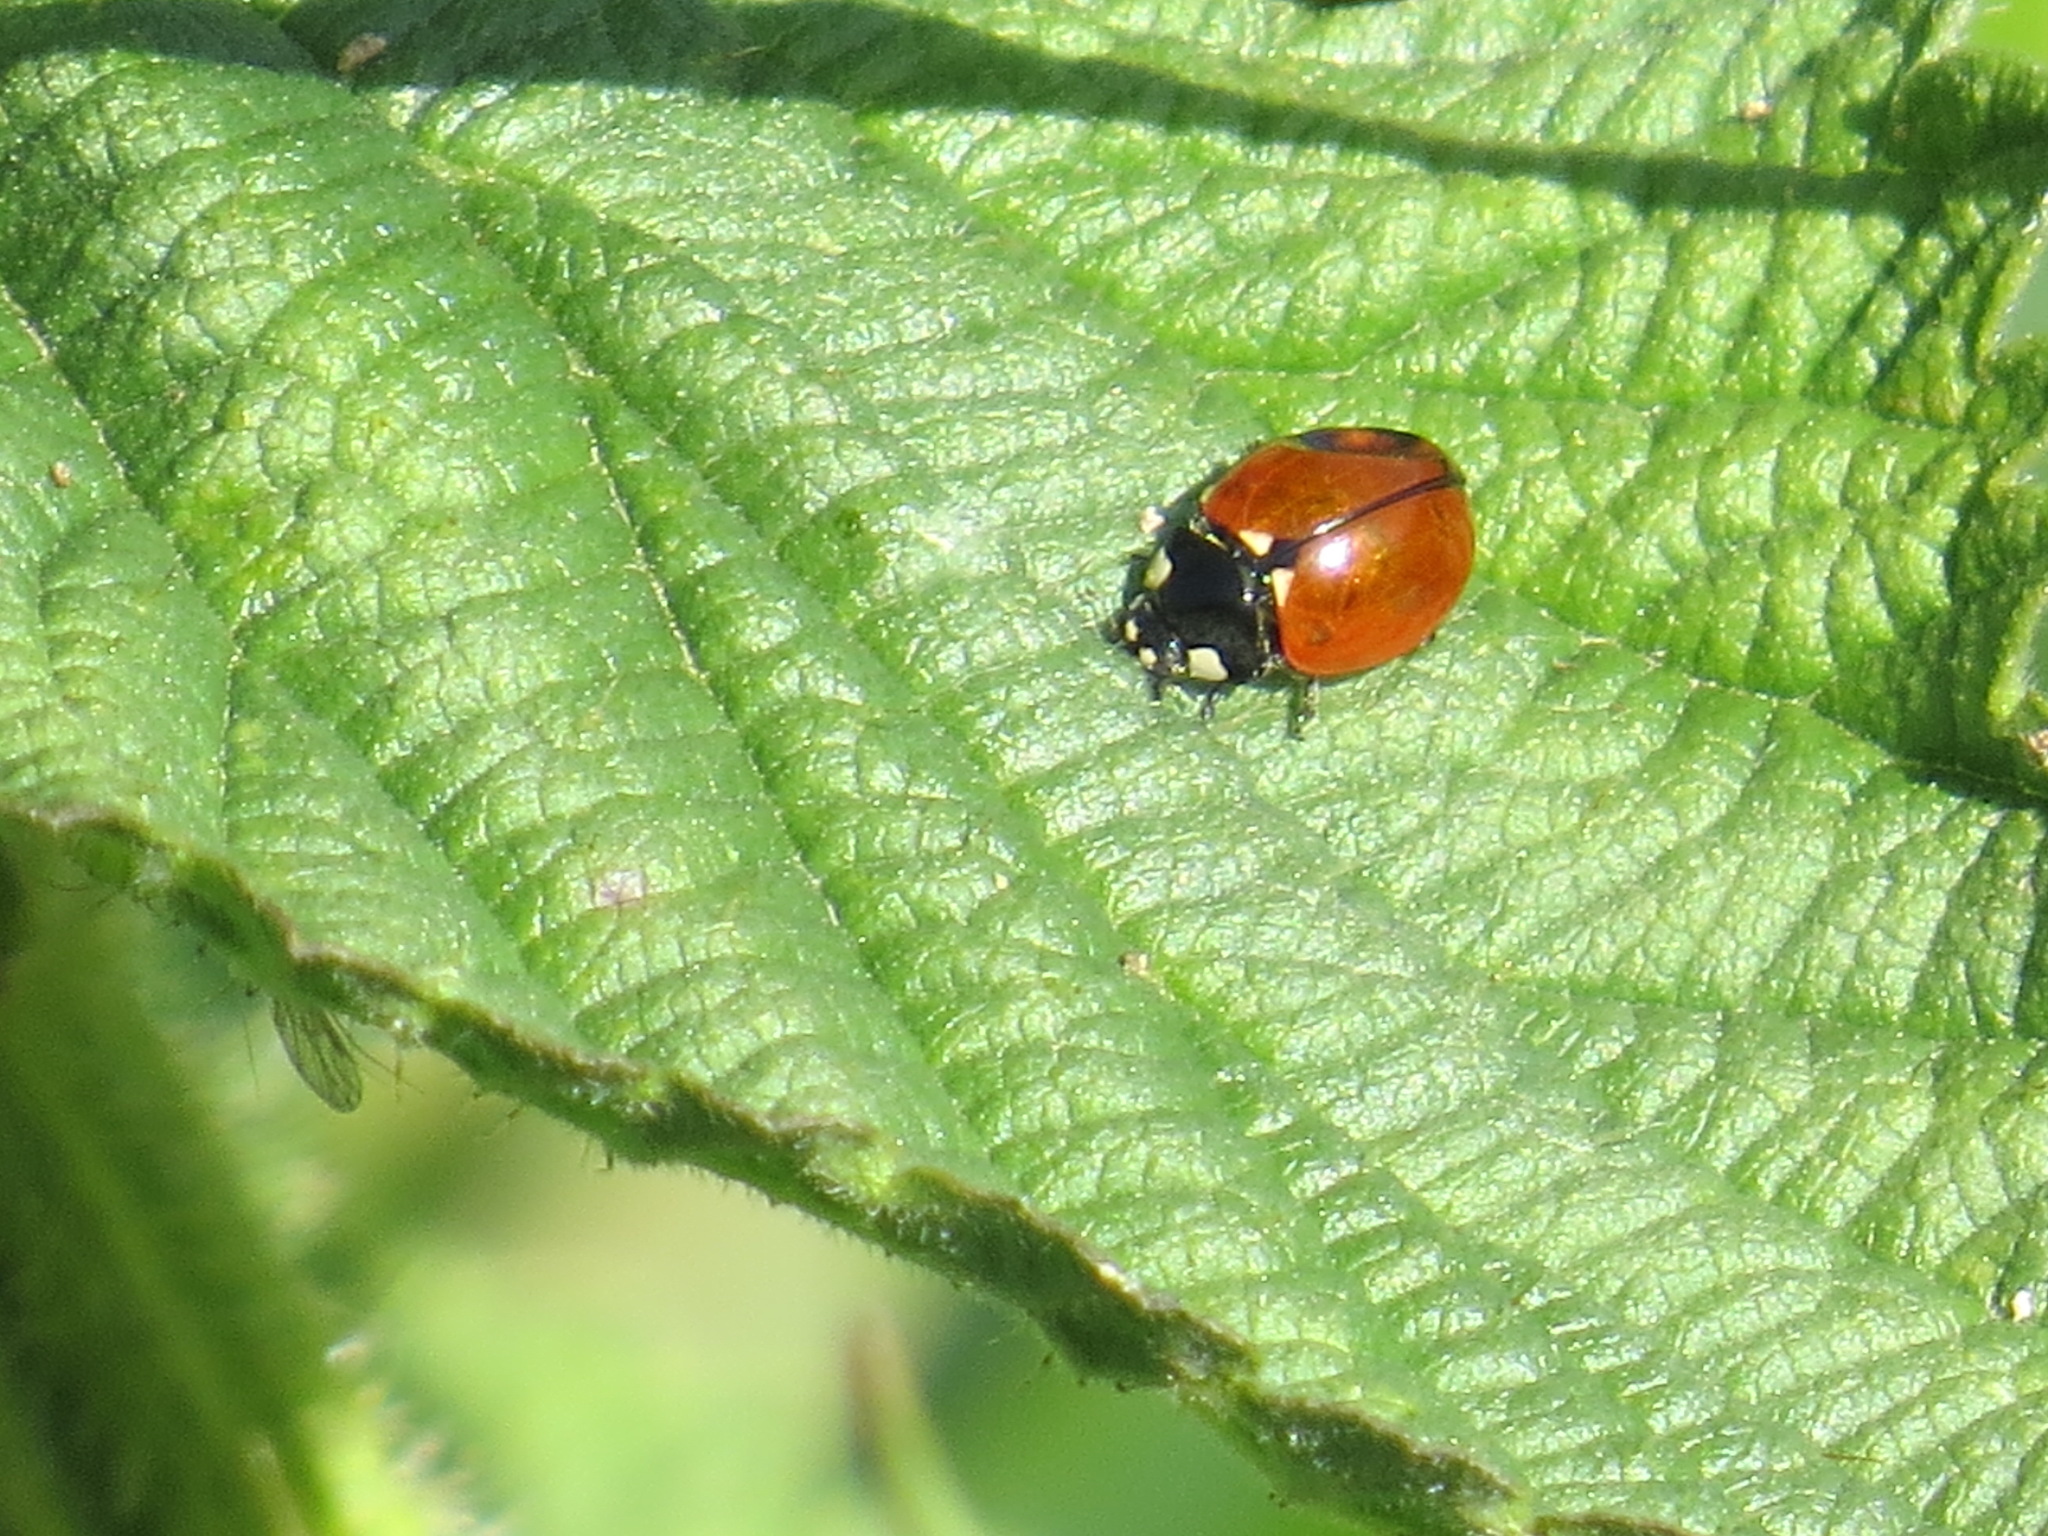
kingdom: Animalia
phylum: Arthropoda
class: Insecta
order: Coleoptera
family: Coccinellidae
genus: Coccinella
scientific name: Coccinella californica
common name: Lady beetle
